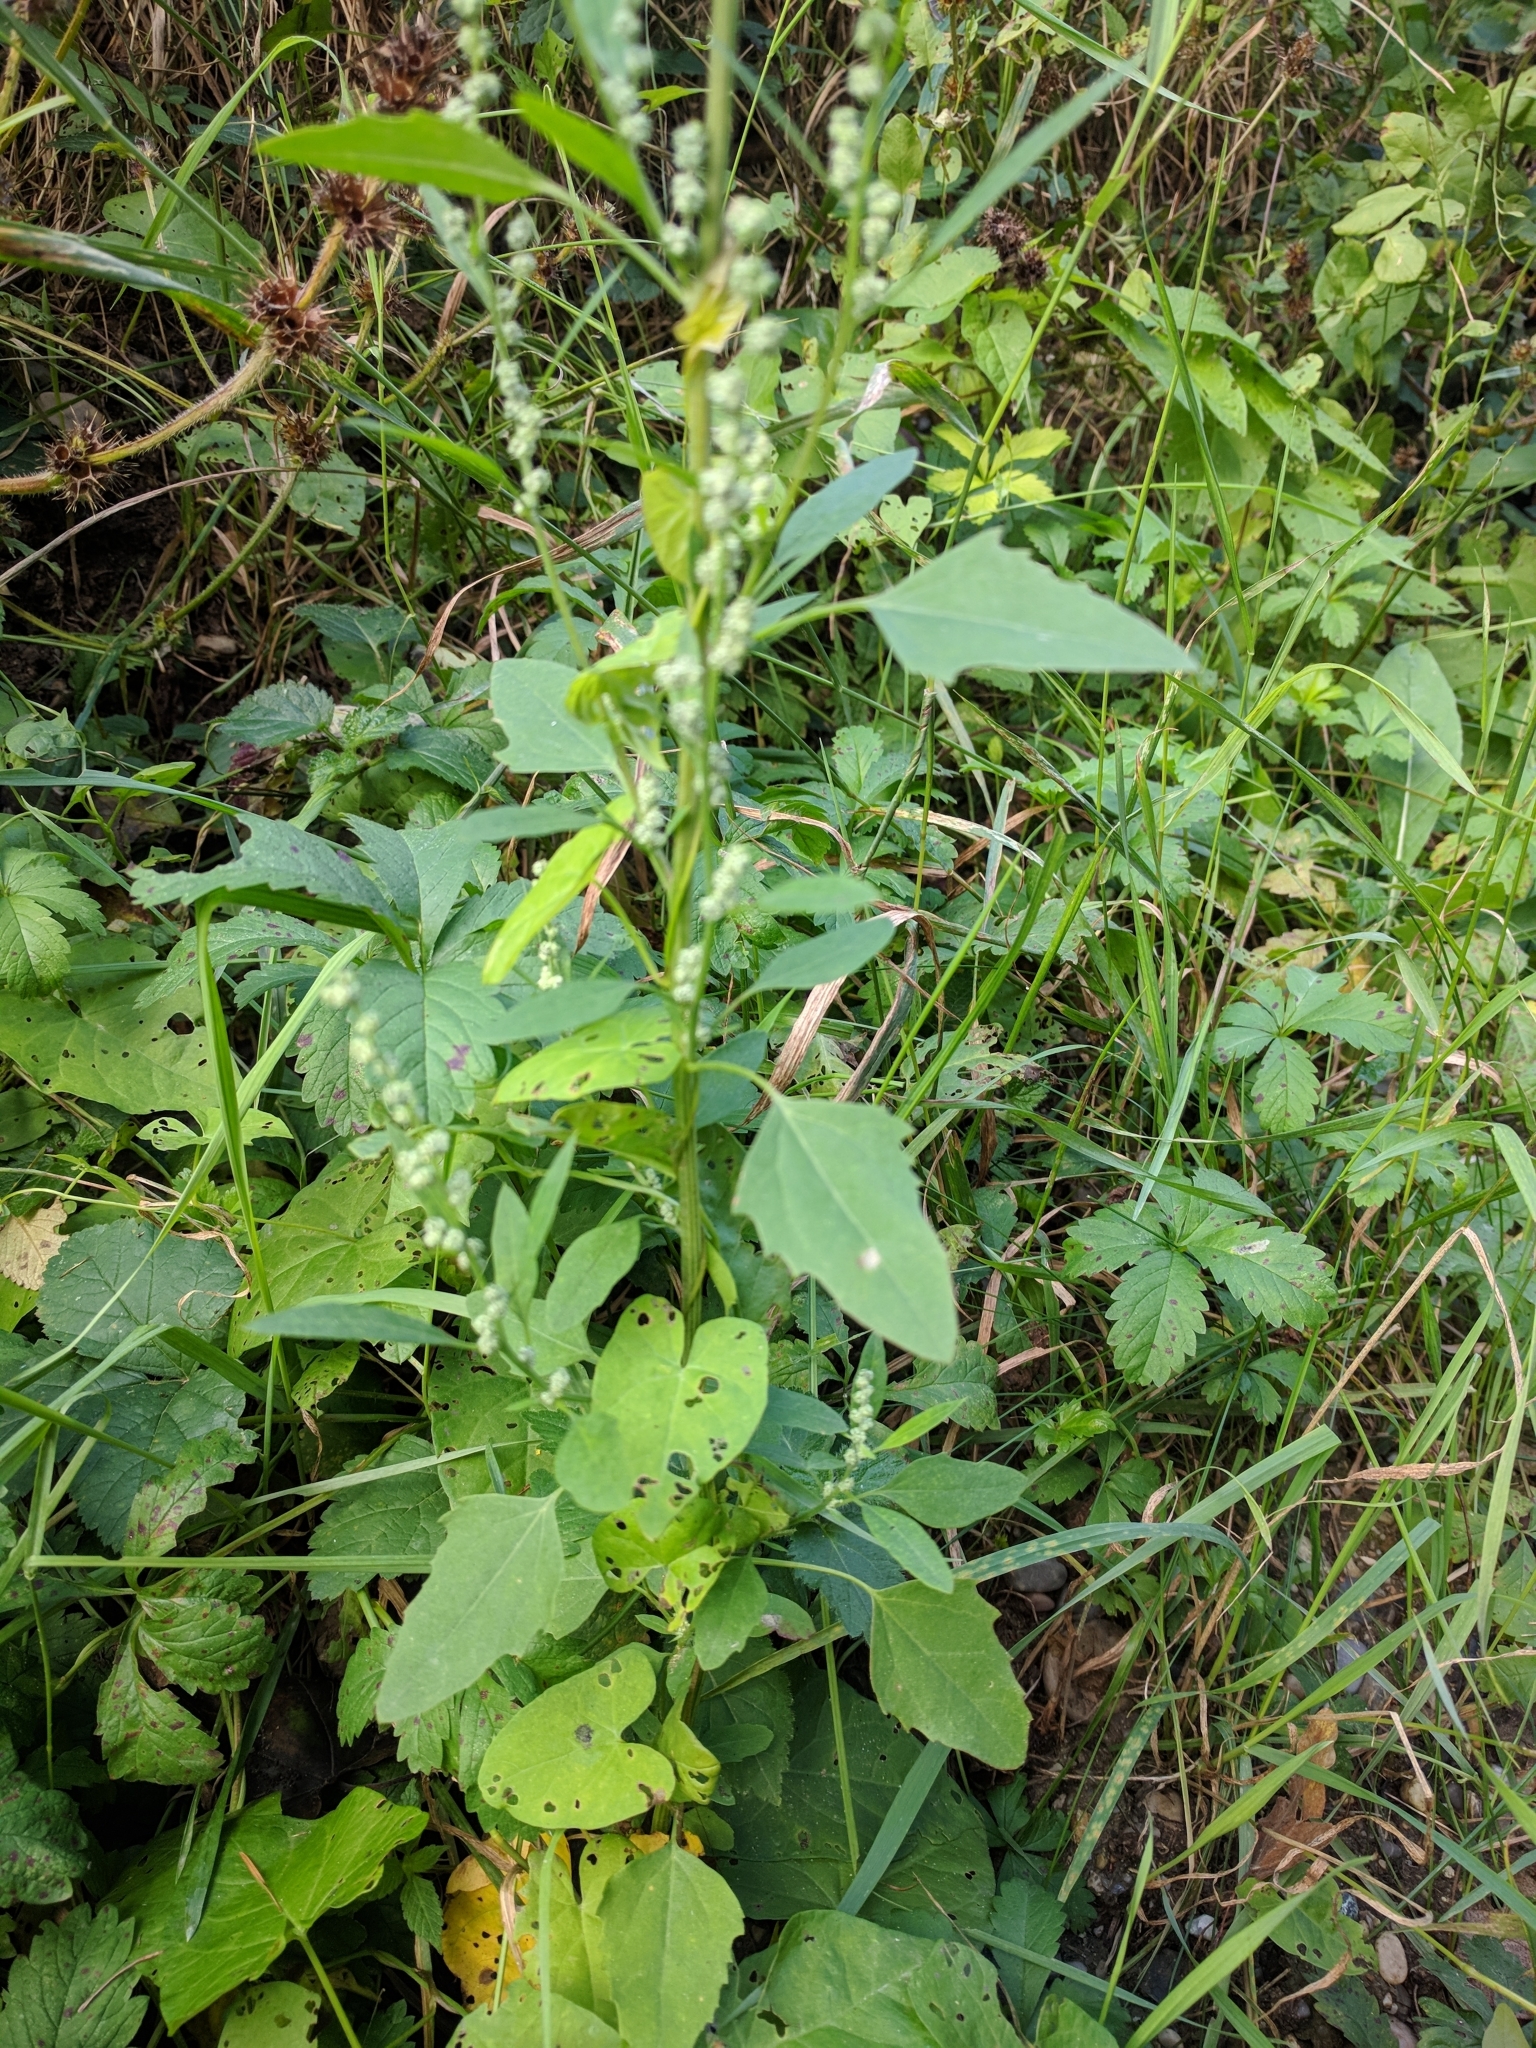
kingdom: Plantae
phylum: Tracheophyta
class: Magnoliopsida
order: Caryophyllales
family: Amaranthaceae
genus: Chenopodium
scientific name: Chenopodium album
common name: Fat-hen
